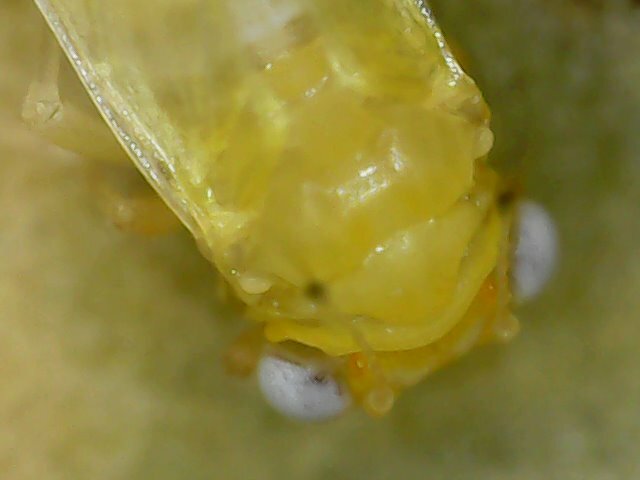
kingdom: Animalia
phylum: Arthropoda
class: Insecta
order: Hemiptera
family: Phacopteronidae
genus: Pseudophacopteron
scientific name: Pseudophacopteron tuberculatum
